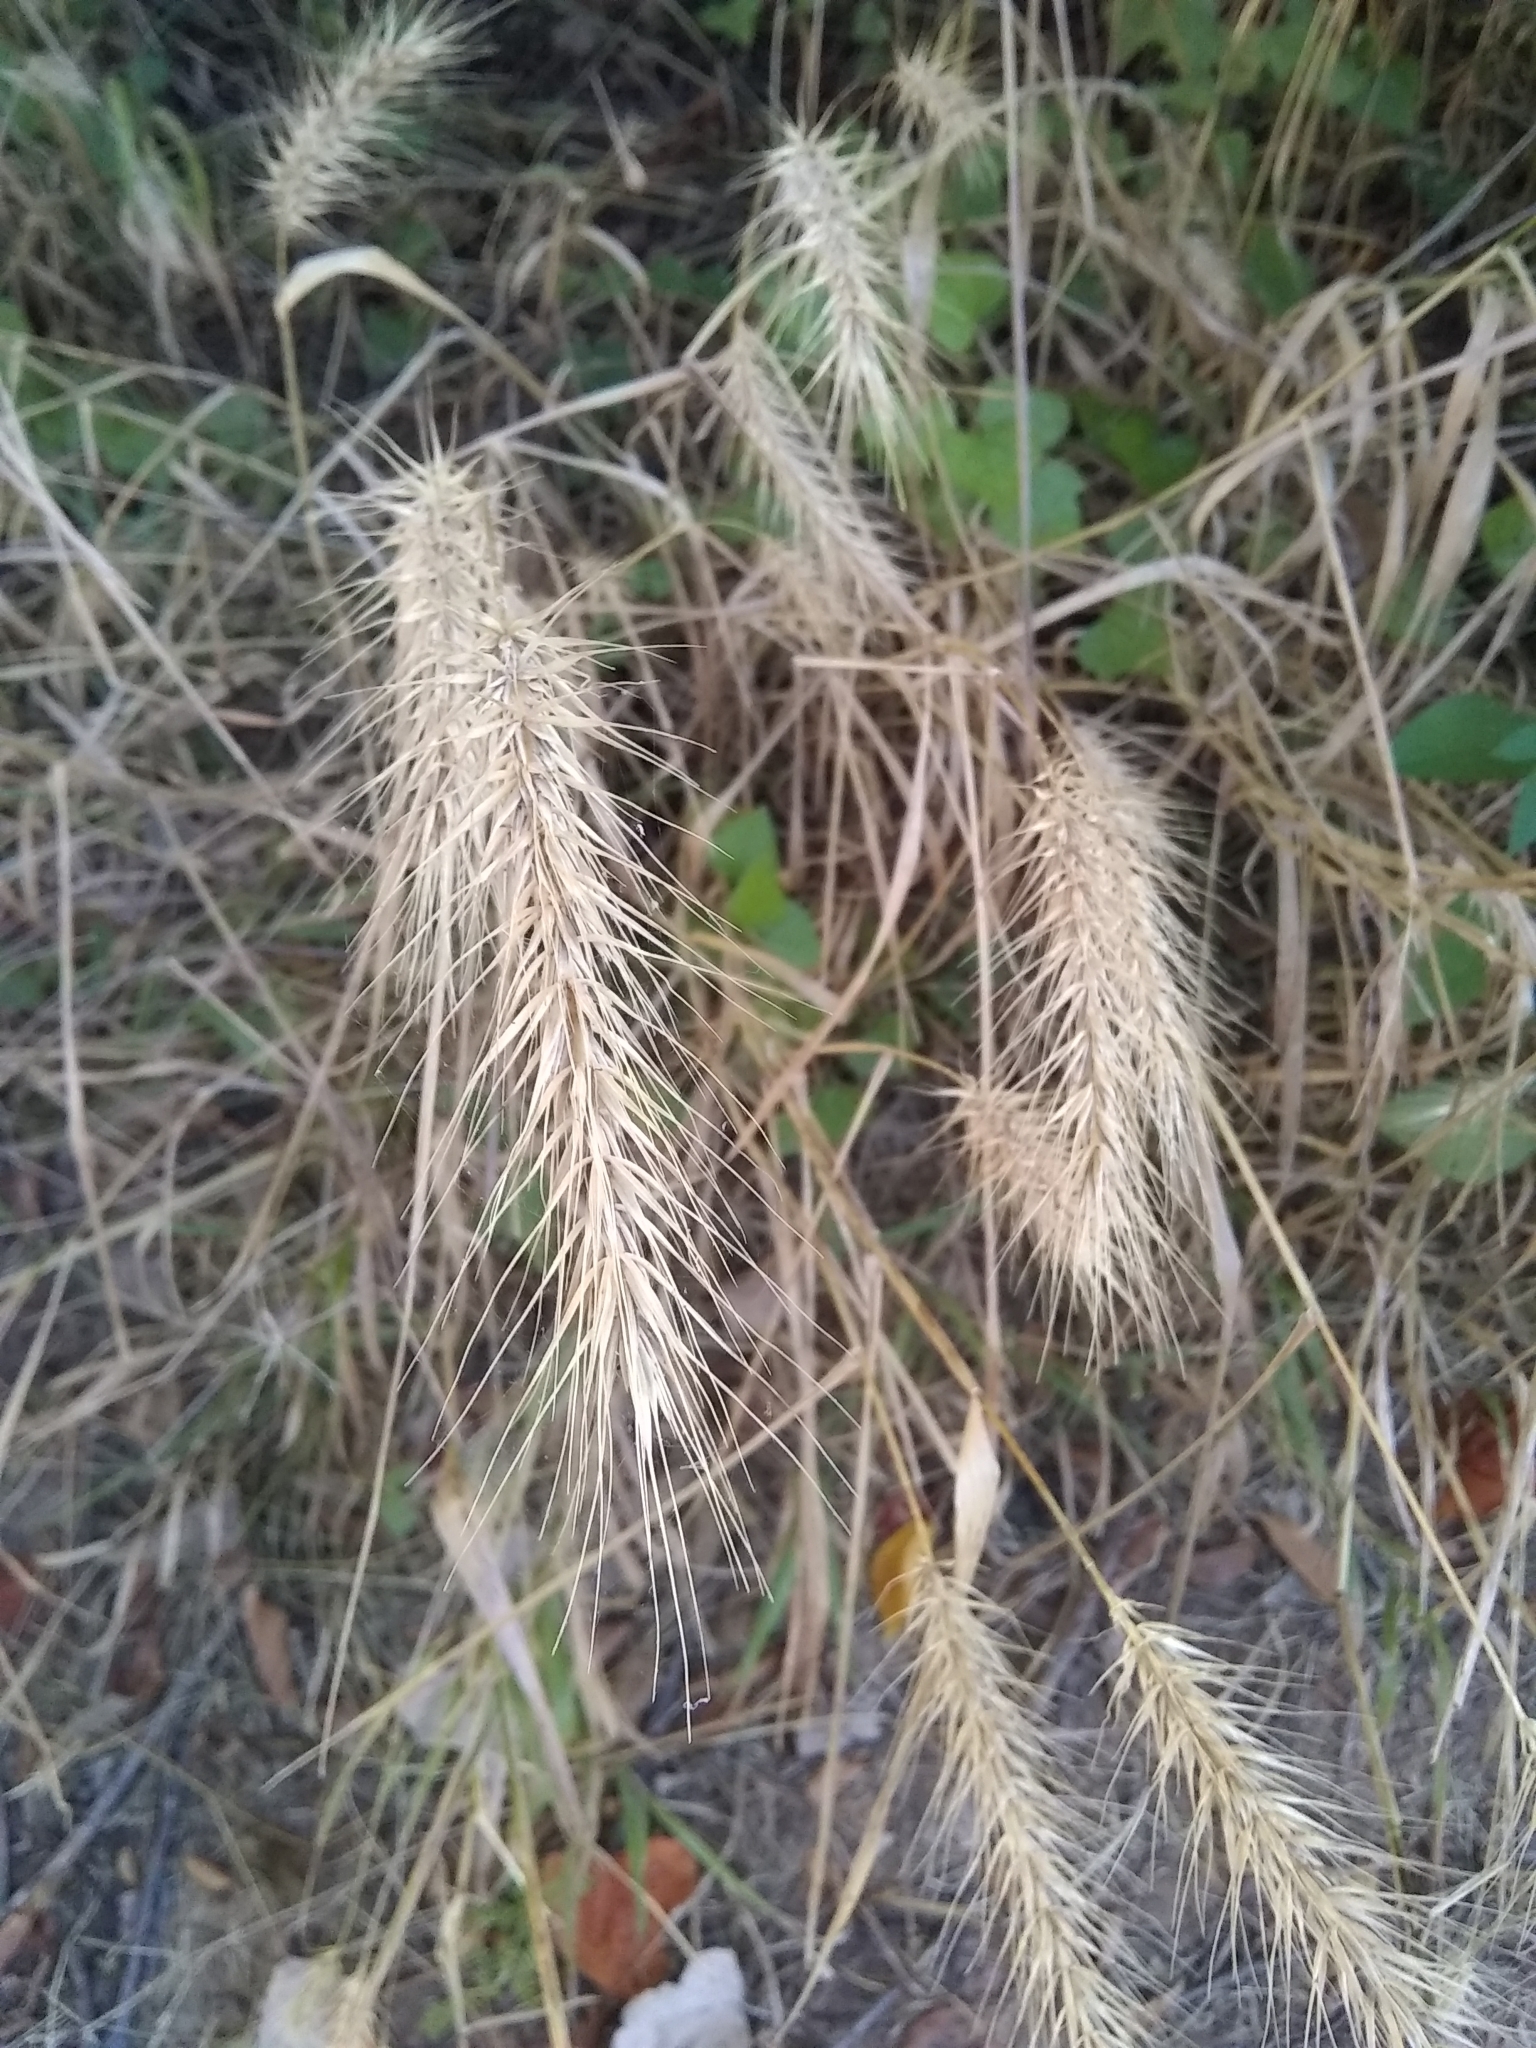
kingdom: Plantae
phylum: Tracheophyta
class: Liliopsida
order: Poales
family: Poaceae
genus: Elymus
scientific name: Elymus canadensis
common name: Canada wild rye
